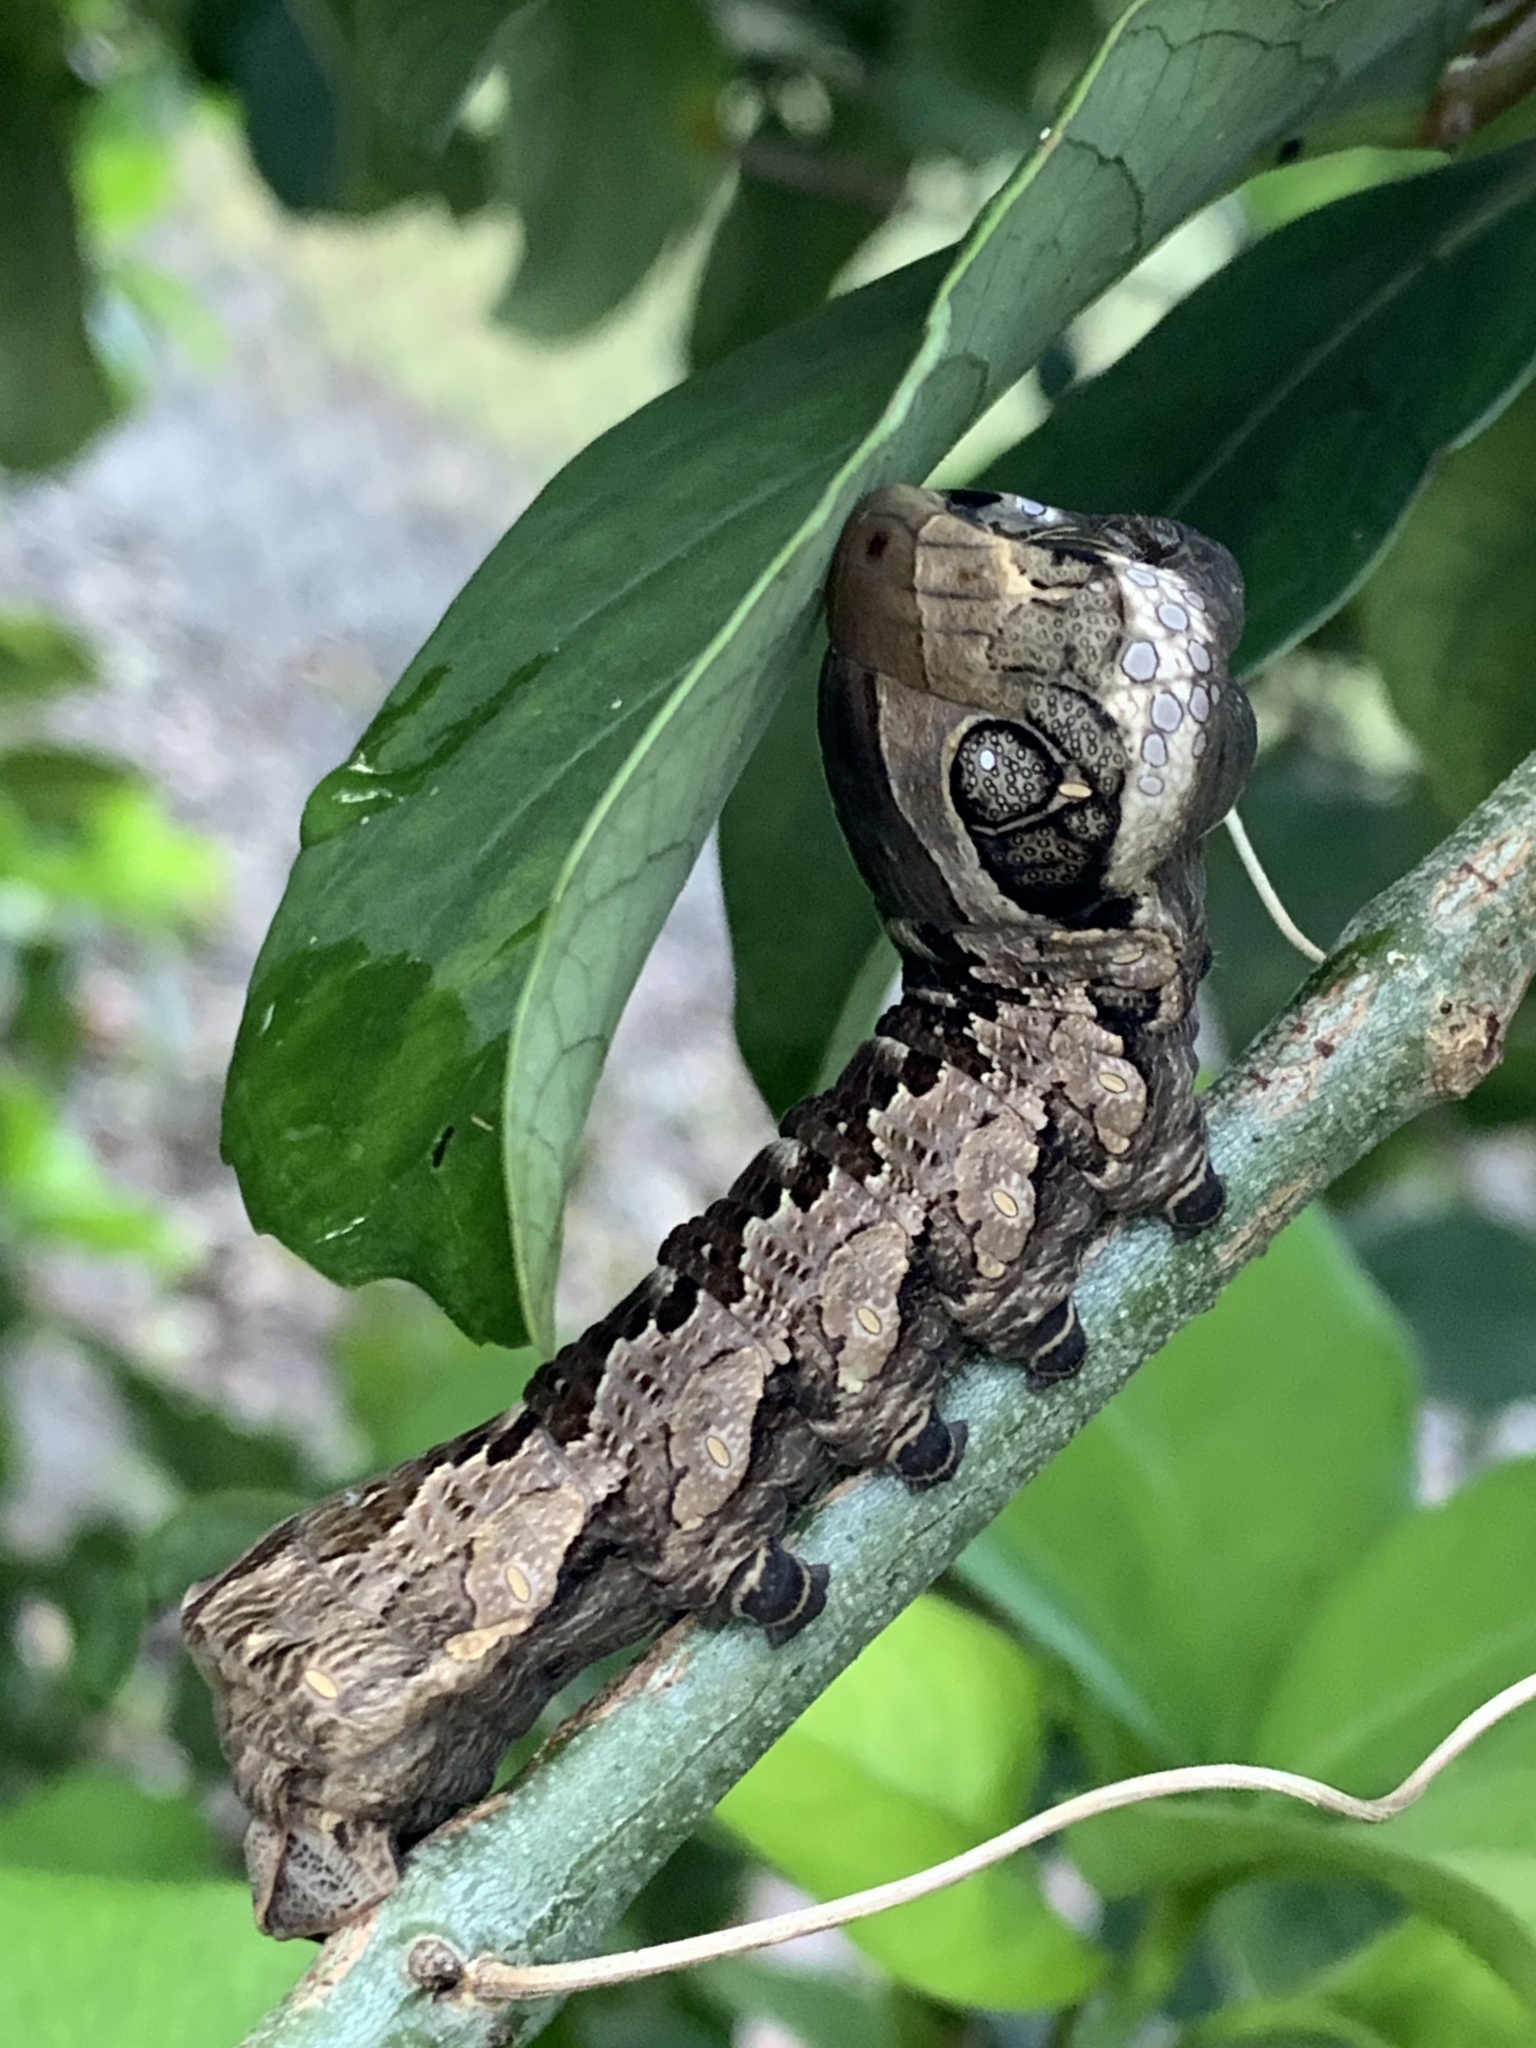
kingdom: Animalia
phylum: Arthropoda
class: Insecta
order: Lepidoptera
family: Sphingidae
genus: Eumorpha
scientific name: Eumorpha labruscae
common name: Gaudy sphinx
